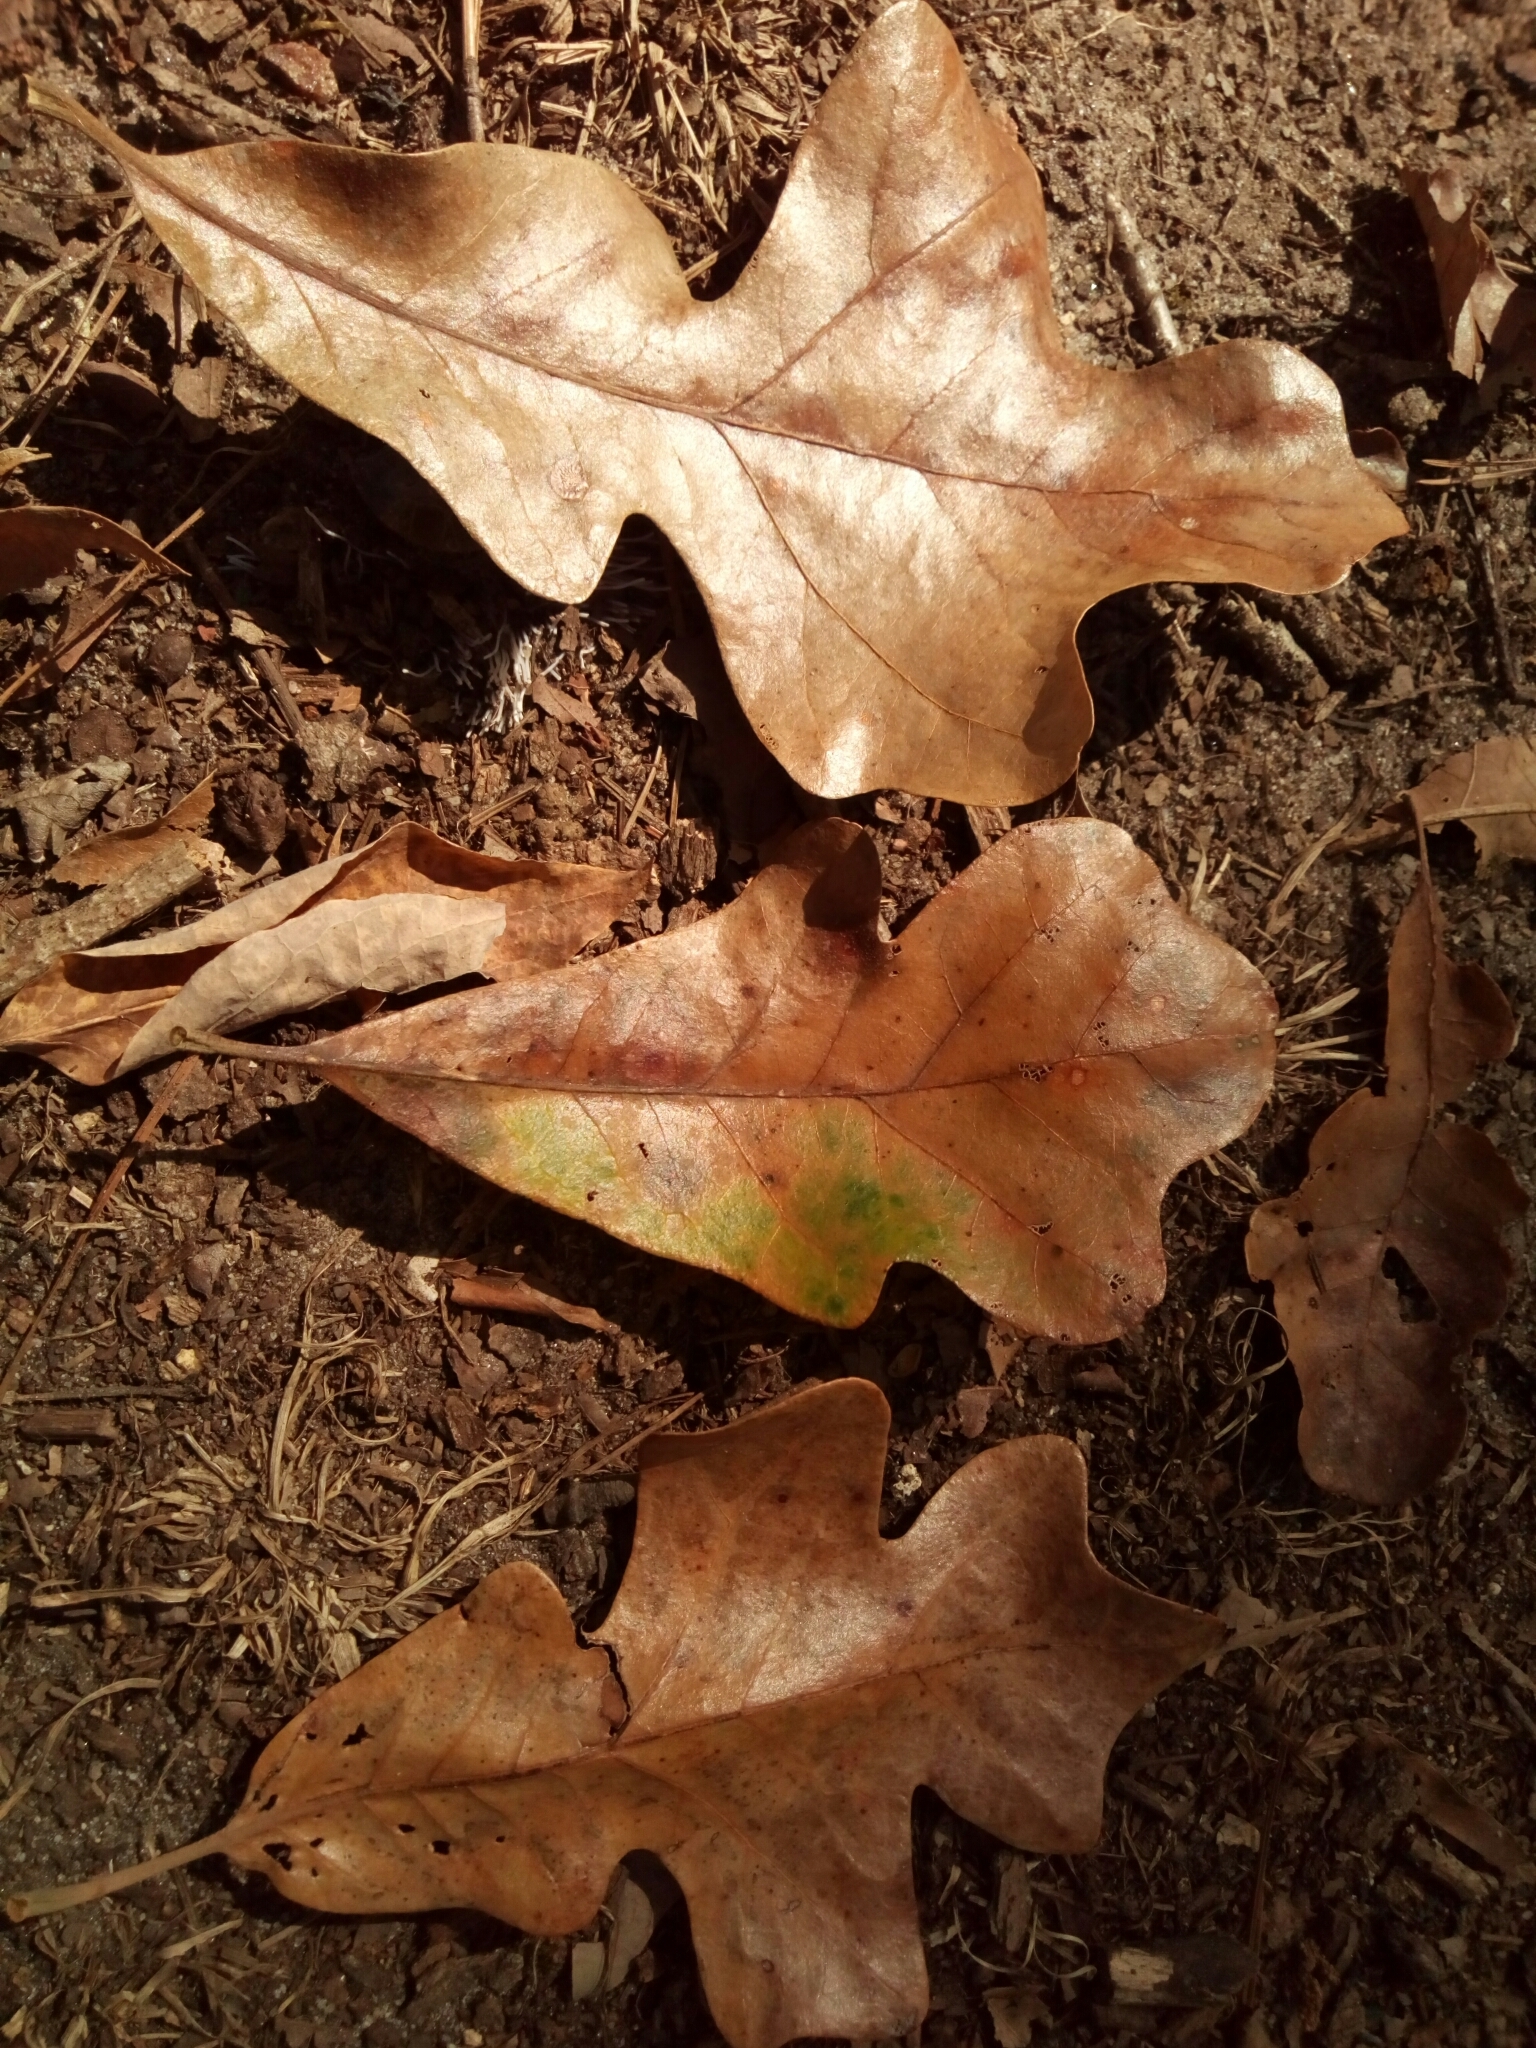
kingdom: Plantae
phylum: Tracheophyta
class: Magnoliopsida
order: Fagales
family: Fagaceae
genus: Quercus
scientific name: Quercus stellata
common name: Post oak
